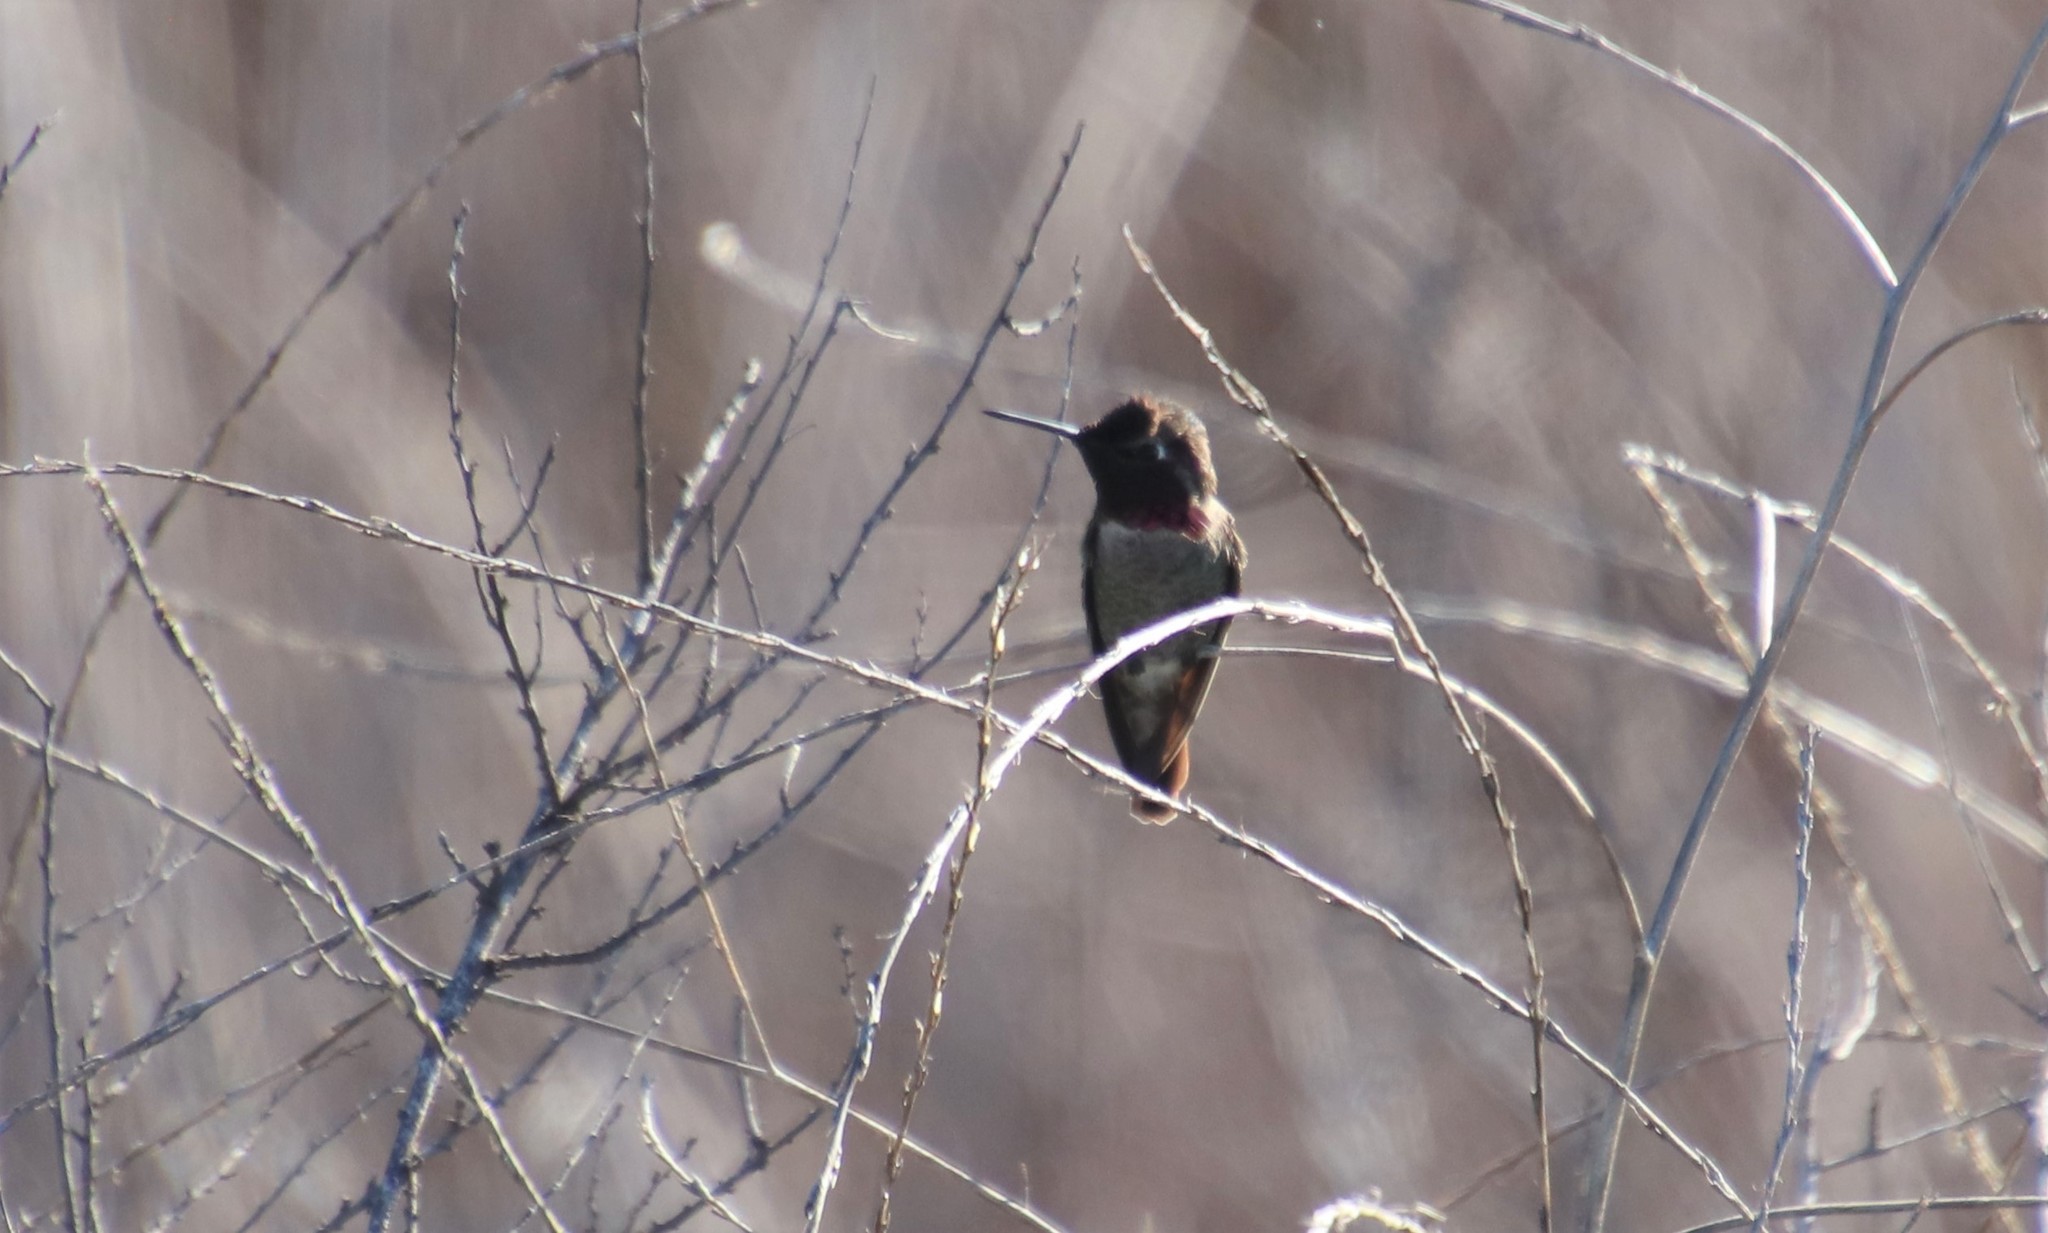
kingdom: Animalia
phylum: Chordata
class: Aves
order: Apodiformes
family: Trochilidae
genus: Calypte
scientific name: Calypte anna
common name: Anna's hummingbird
